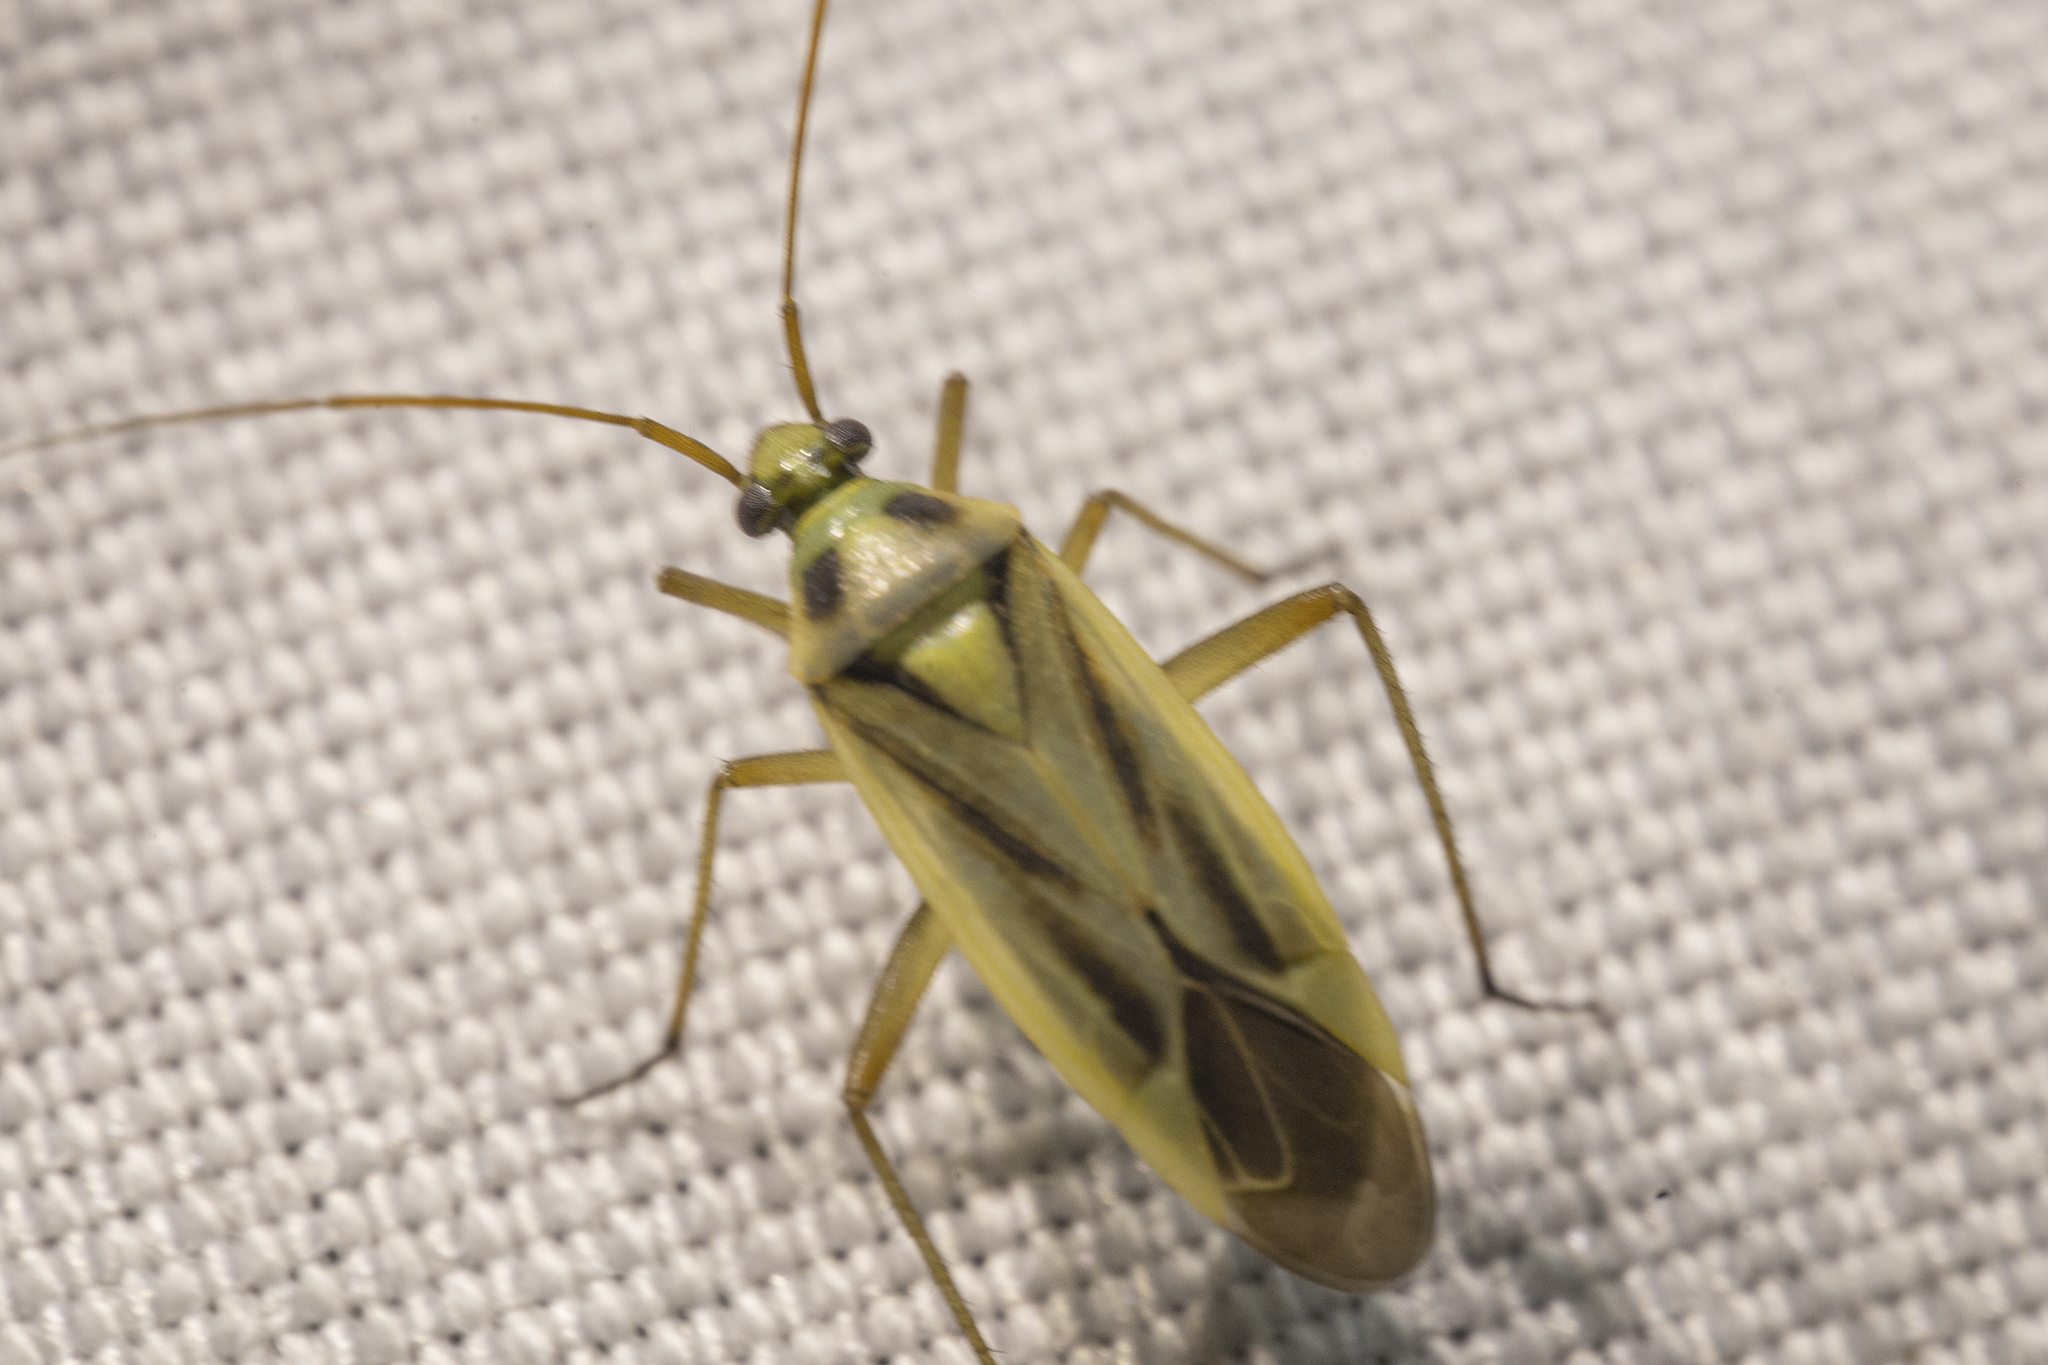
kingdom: Animalia
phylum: Arthropoda
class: Insecta
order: Hemiptera
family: Miridae
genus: Stenotus
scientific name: Stenotus binotatus
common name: Plant bug
